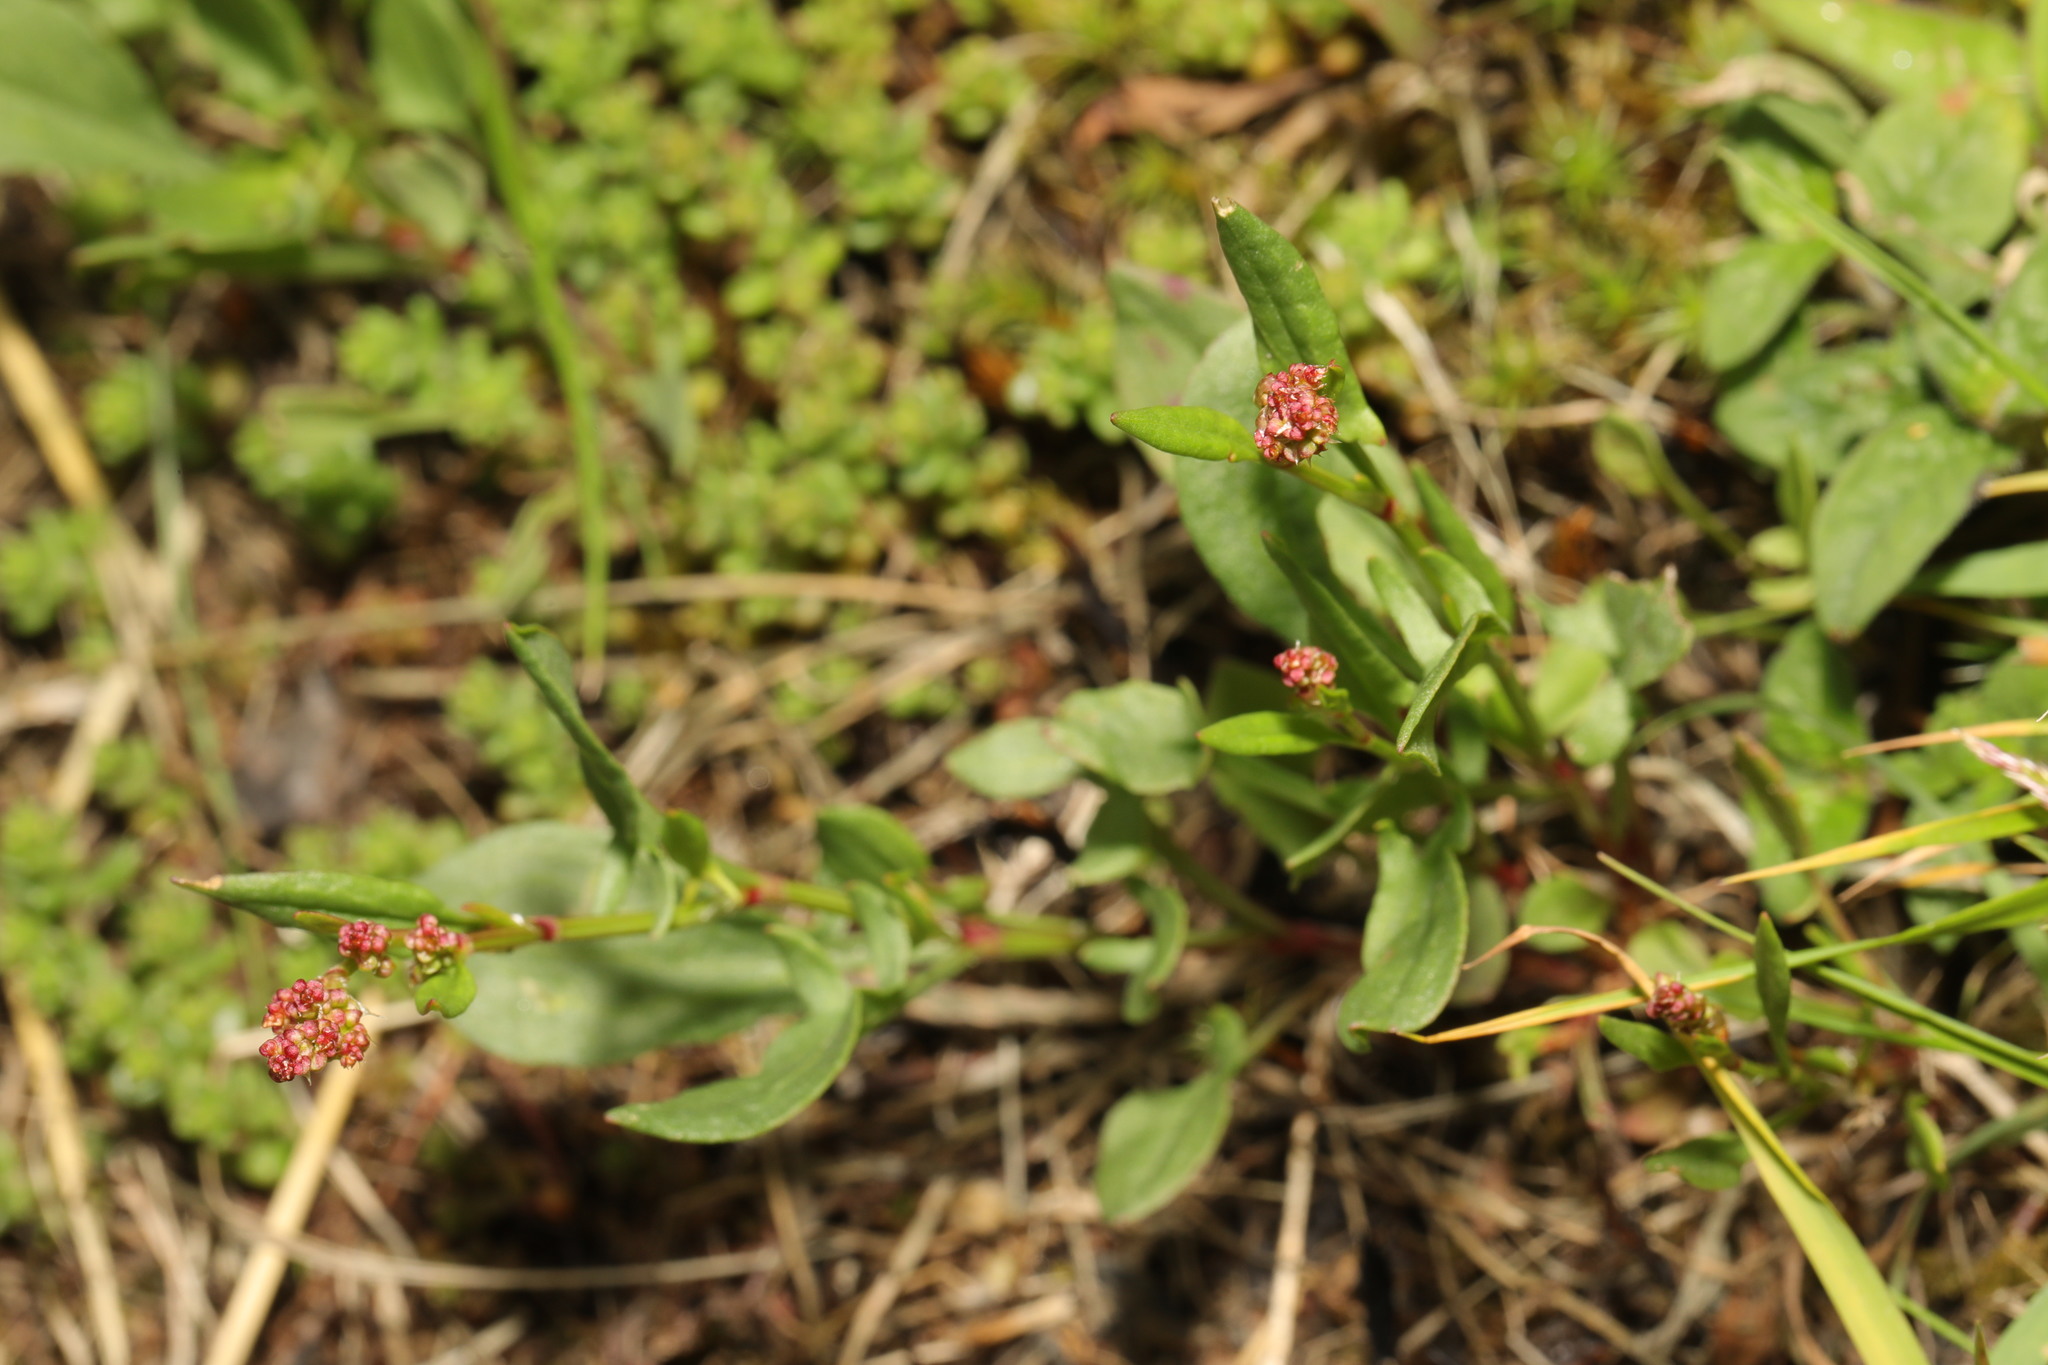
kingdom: Plantae
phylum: Tracheophyta
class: Magnoliopsida
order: Caryophyllales
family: Polygonaceae
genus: Rumex
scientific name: Rumex acetosella
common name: Common sheep sorrel
